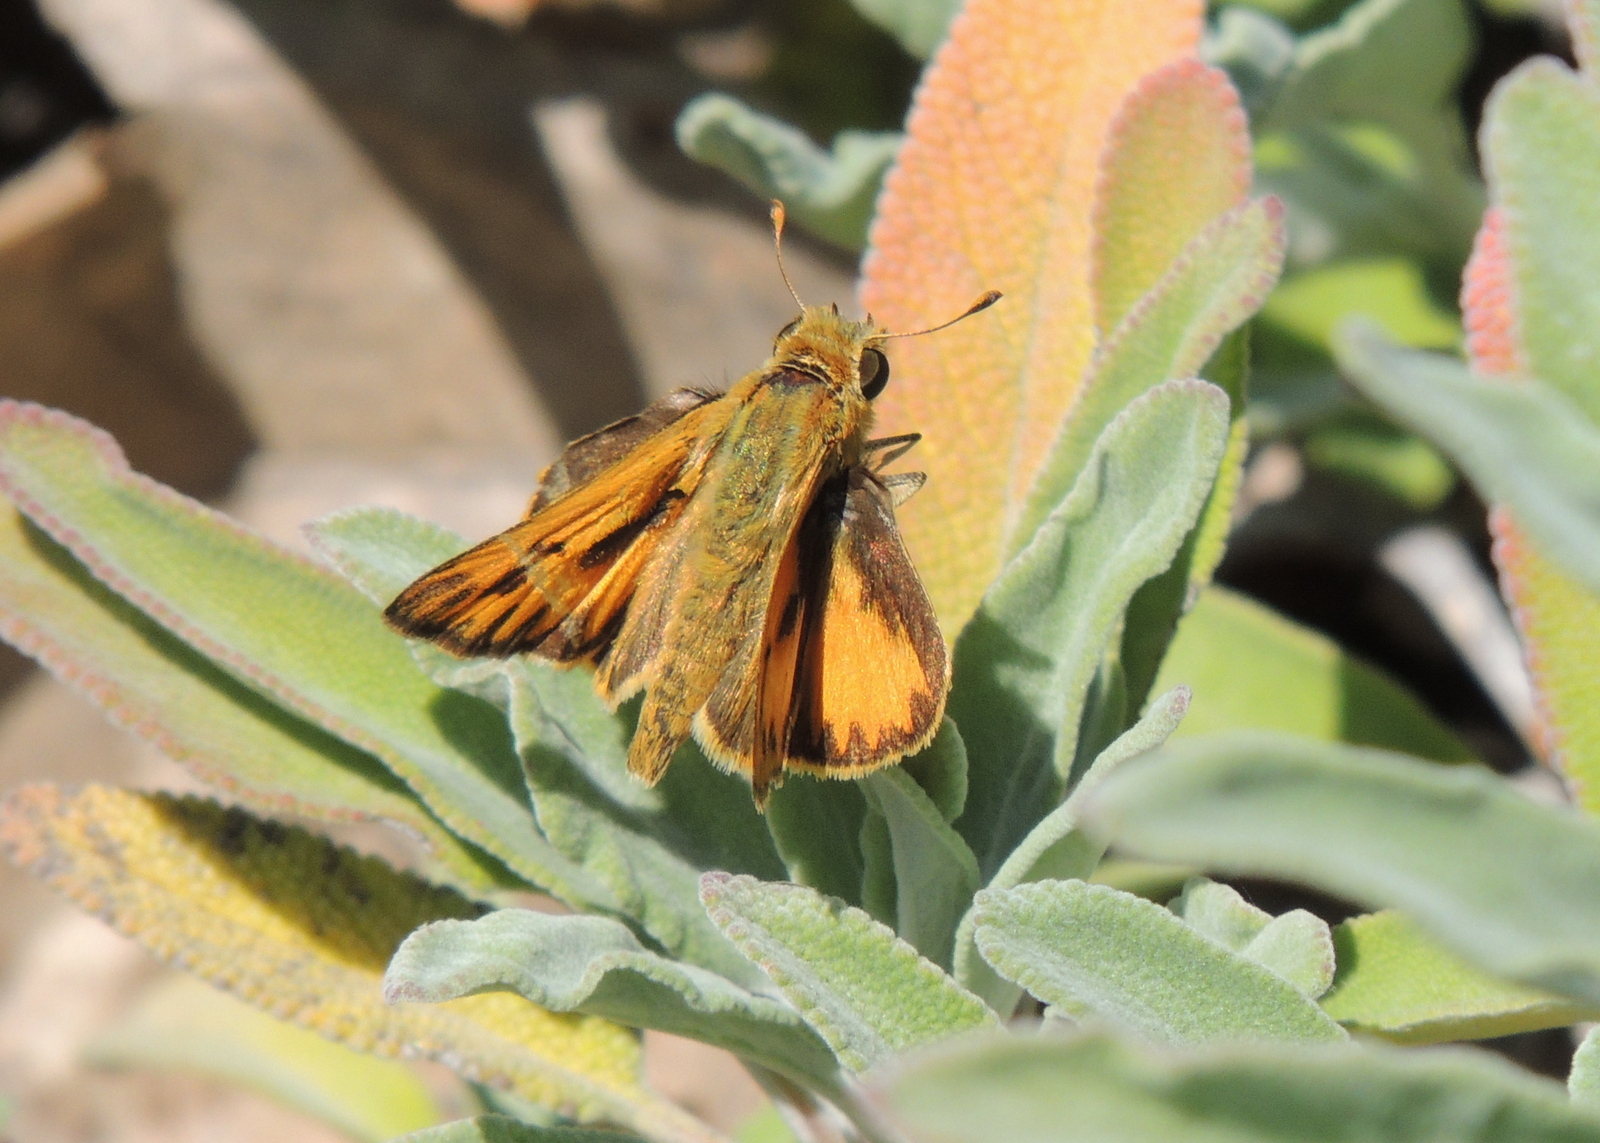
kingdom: Animalia
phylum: Arthropoda
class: Insecta
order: Lepidoptera
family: Hesperiidae
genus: Hylephila
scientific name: Hylephila phyleus
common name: Fiery skipper
